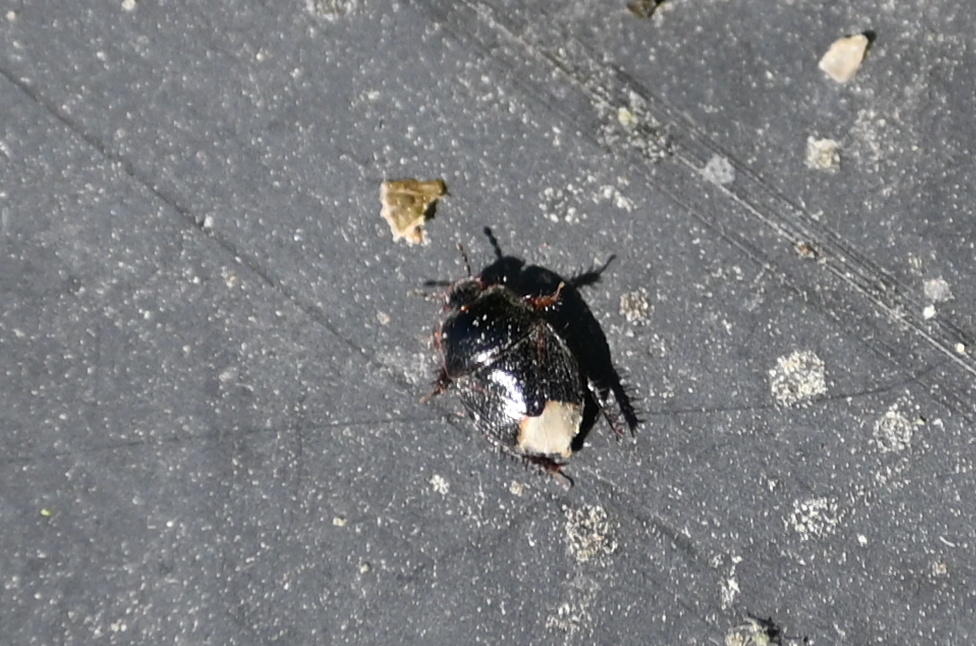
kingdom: Animalia
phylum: Arthropoda
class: Insecta
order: Hemiptera
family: Cydnidae
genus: Microporus
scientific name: Microporus nigrita
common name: Burrower bug
